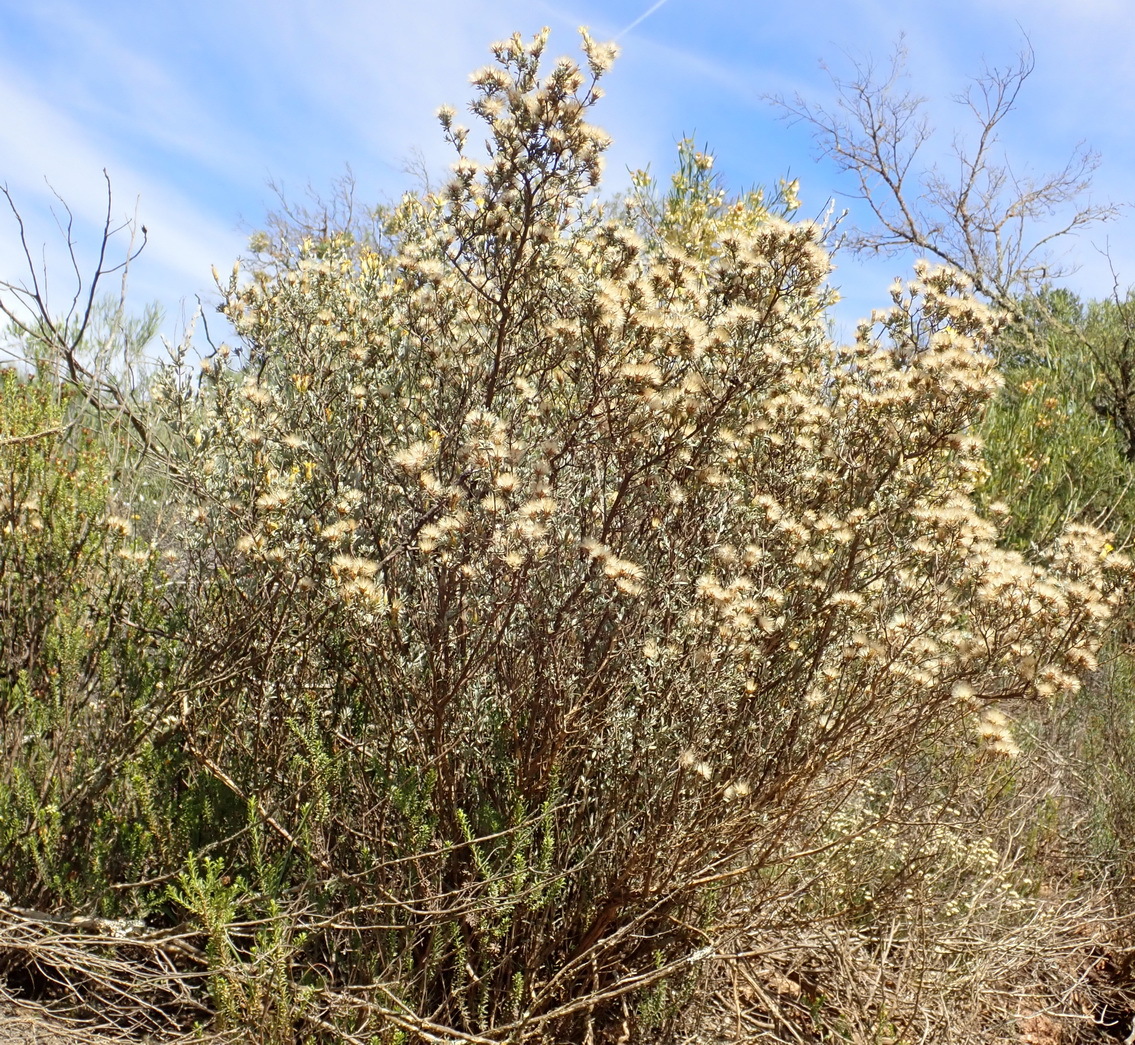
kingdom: Plantae
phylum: Tracheophyta
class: Magnoliopsida
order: Asterales
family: Asteraceae
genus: Pteronia
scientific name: Pteronia incana
